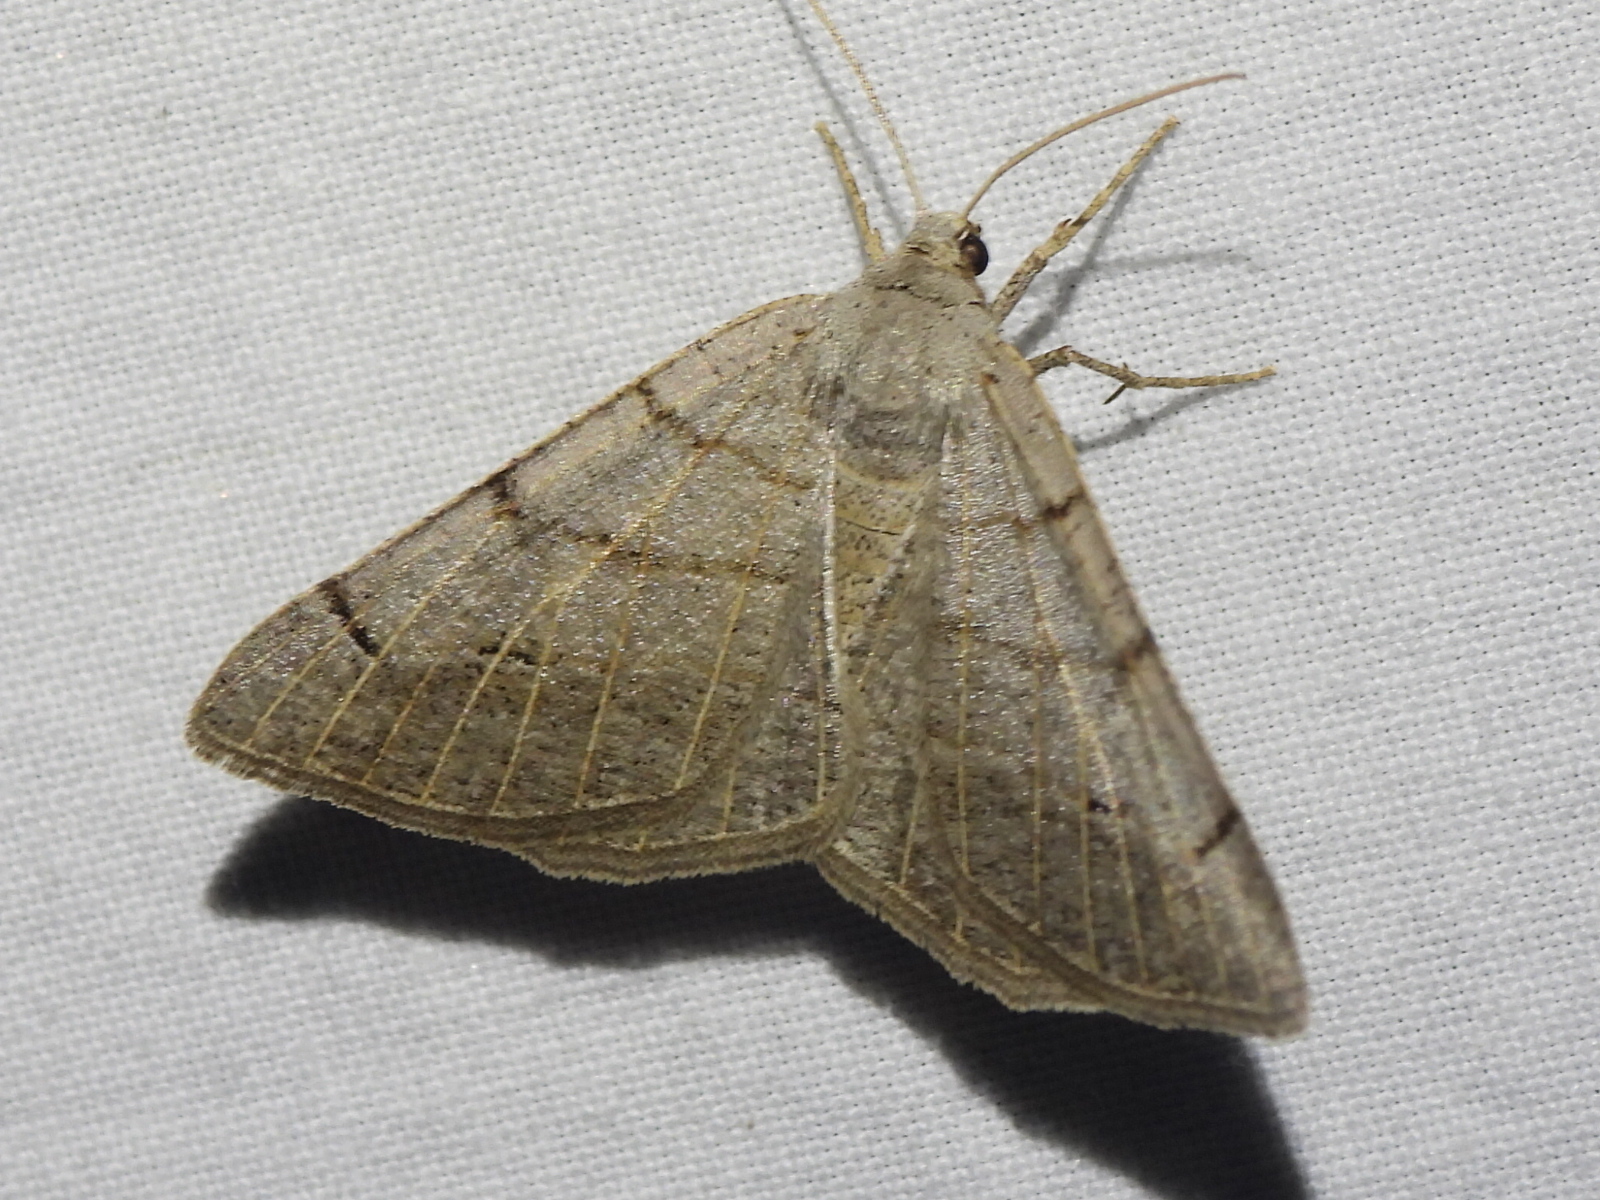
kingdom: Animalia
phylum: Arthropoda
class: Insecta
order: Lepidoptera
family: Geometridae
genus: Isturgia
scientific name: Isturgia dislocaria
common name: Pale-viened enconista
